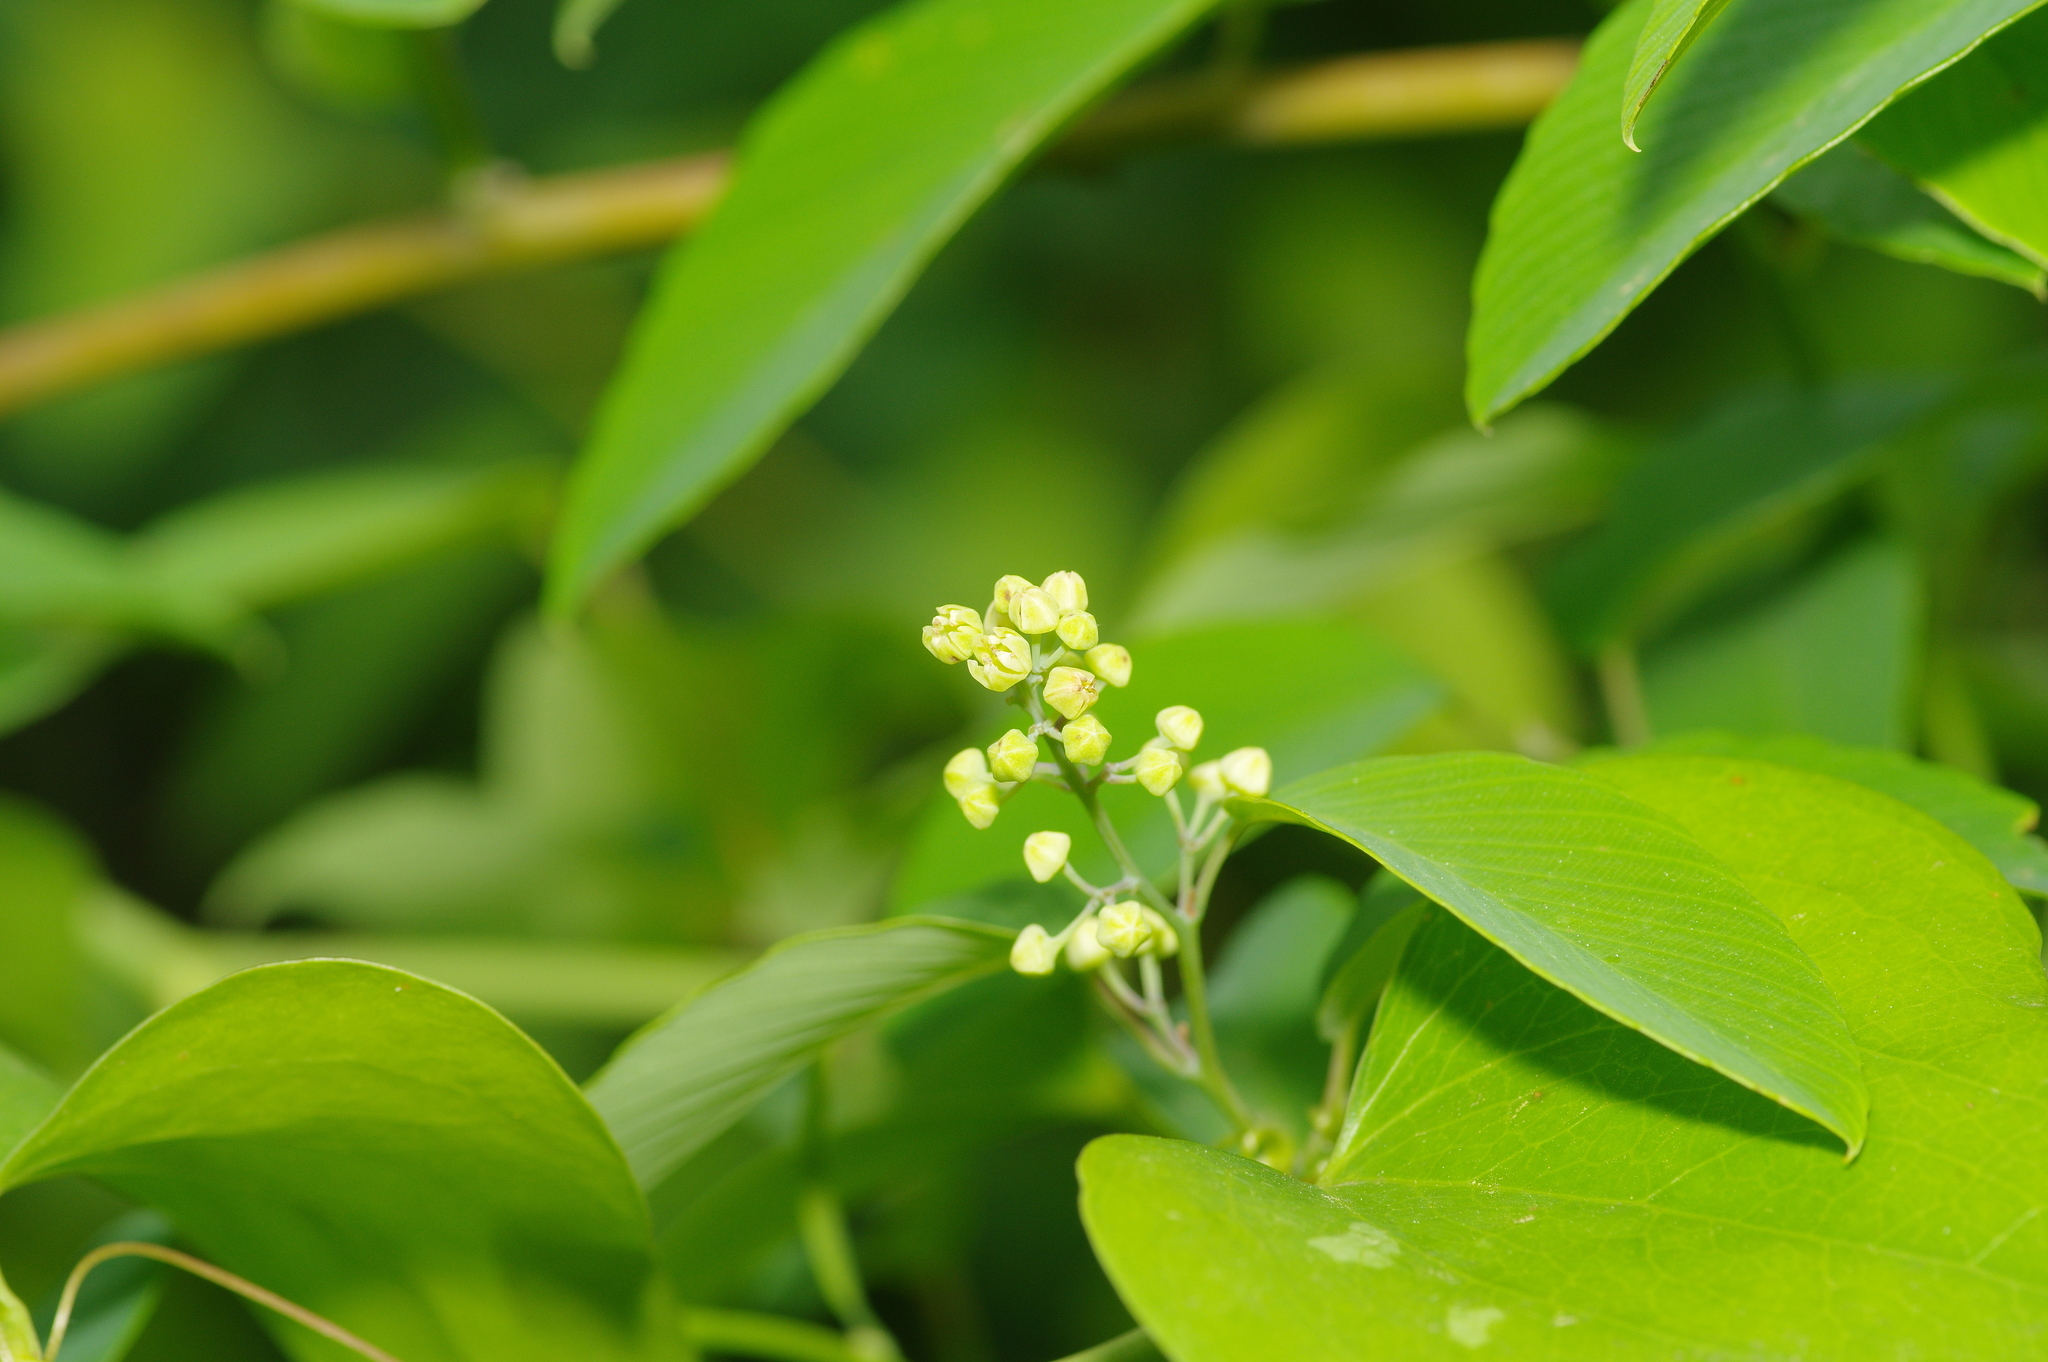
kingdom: Plantae
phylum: Tracheophyta
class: Magnoliopsida
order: Rosales
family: Rhamnaceae
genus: Berchemia
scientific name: Berchemia scandens
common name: Supplejack
